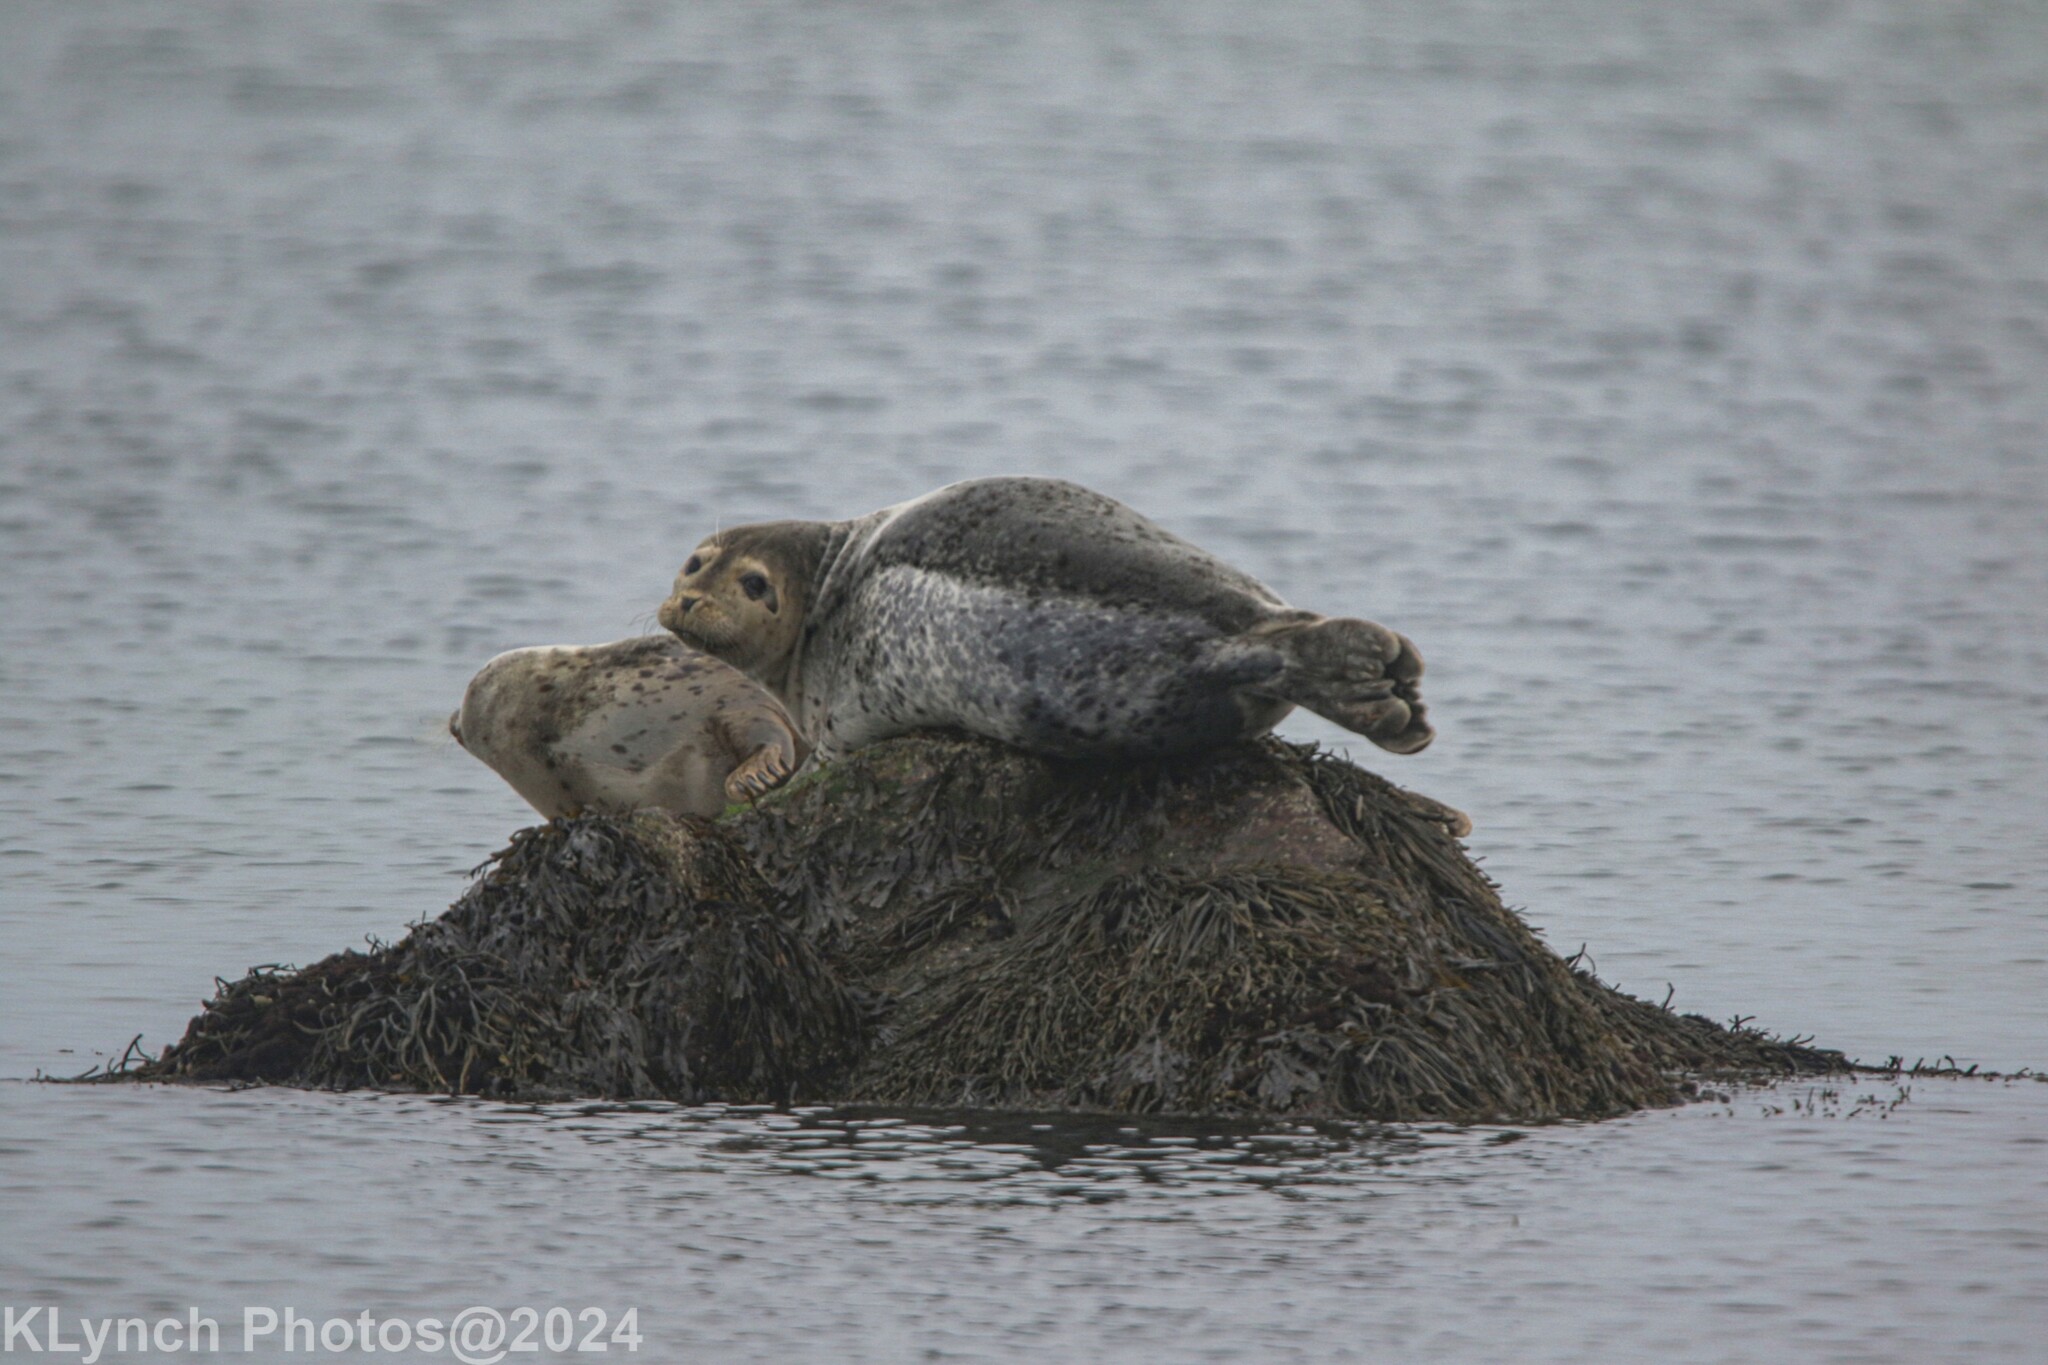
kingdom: Animalia
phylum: Chordata
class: Mammalia
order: Carnivora
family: Phocidae
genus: Phoca
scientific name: Phoca vitulina
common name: Harbor seal
